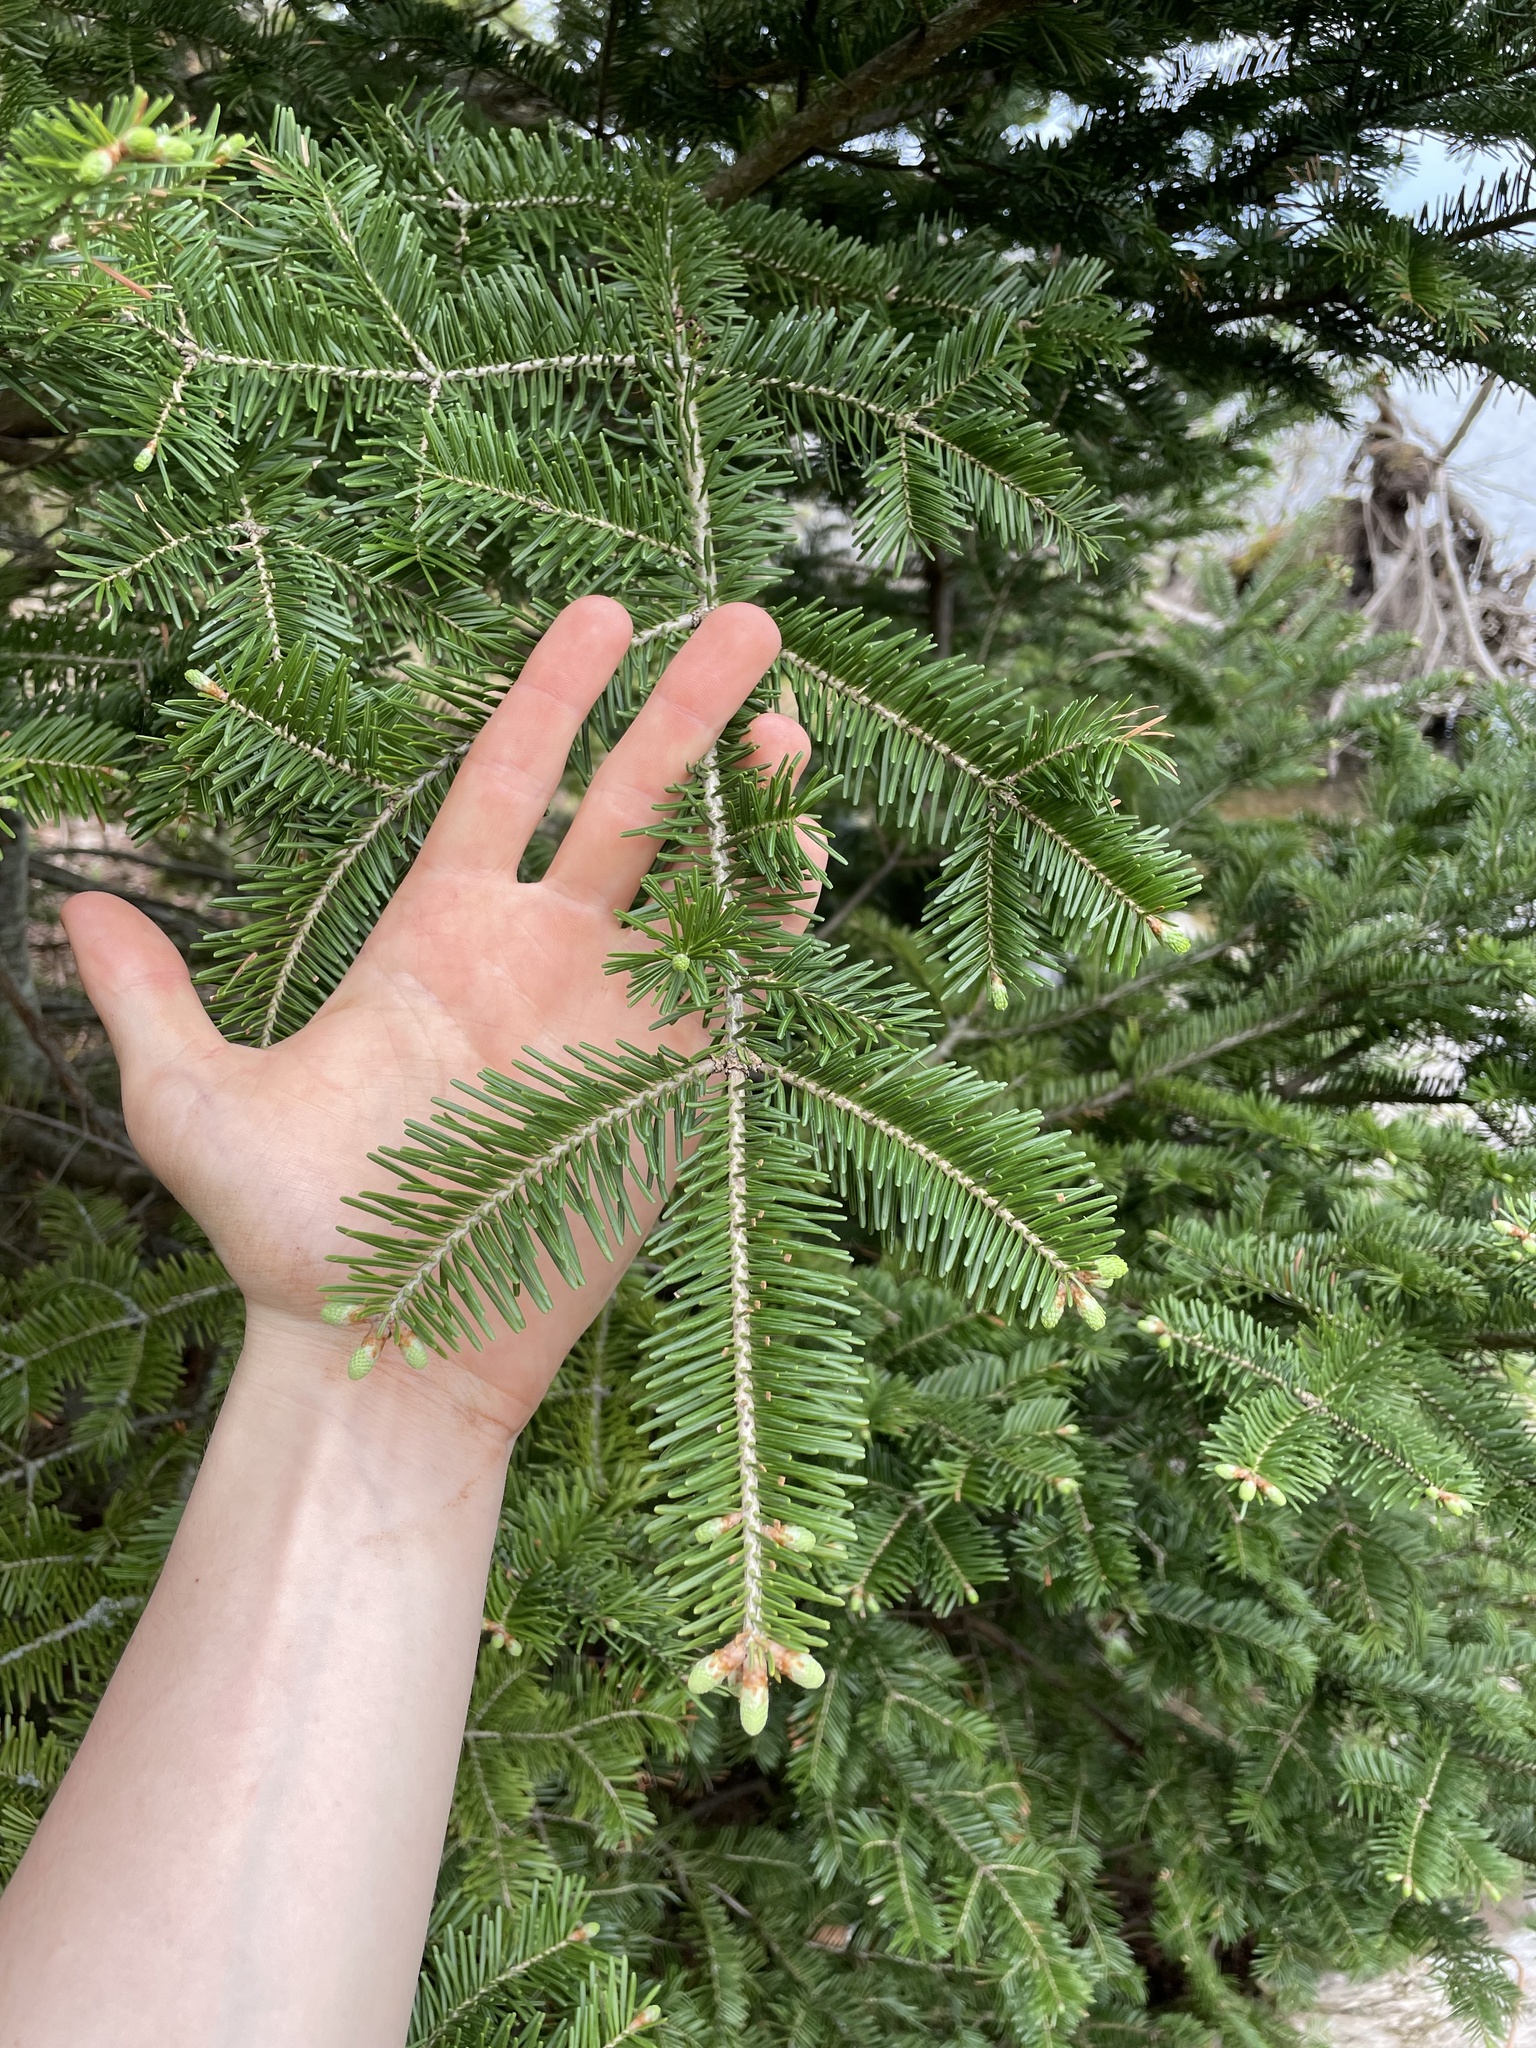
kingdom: Plantae
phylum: Tracheophyta
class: Pinopsida
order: Pinales
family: Pinaceae
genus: Abies
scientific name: Abies balsamea
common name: Balsam fir
